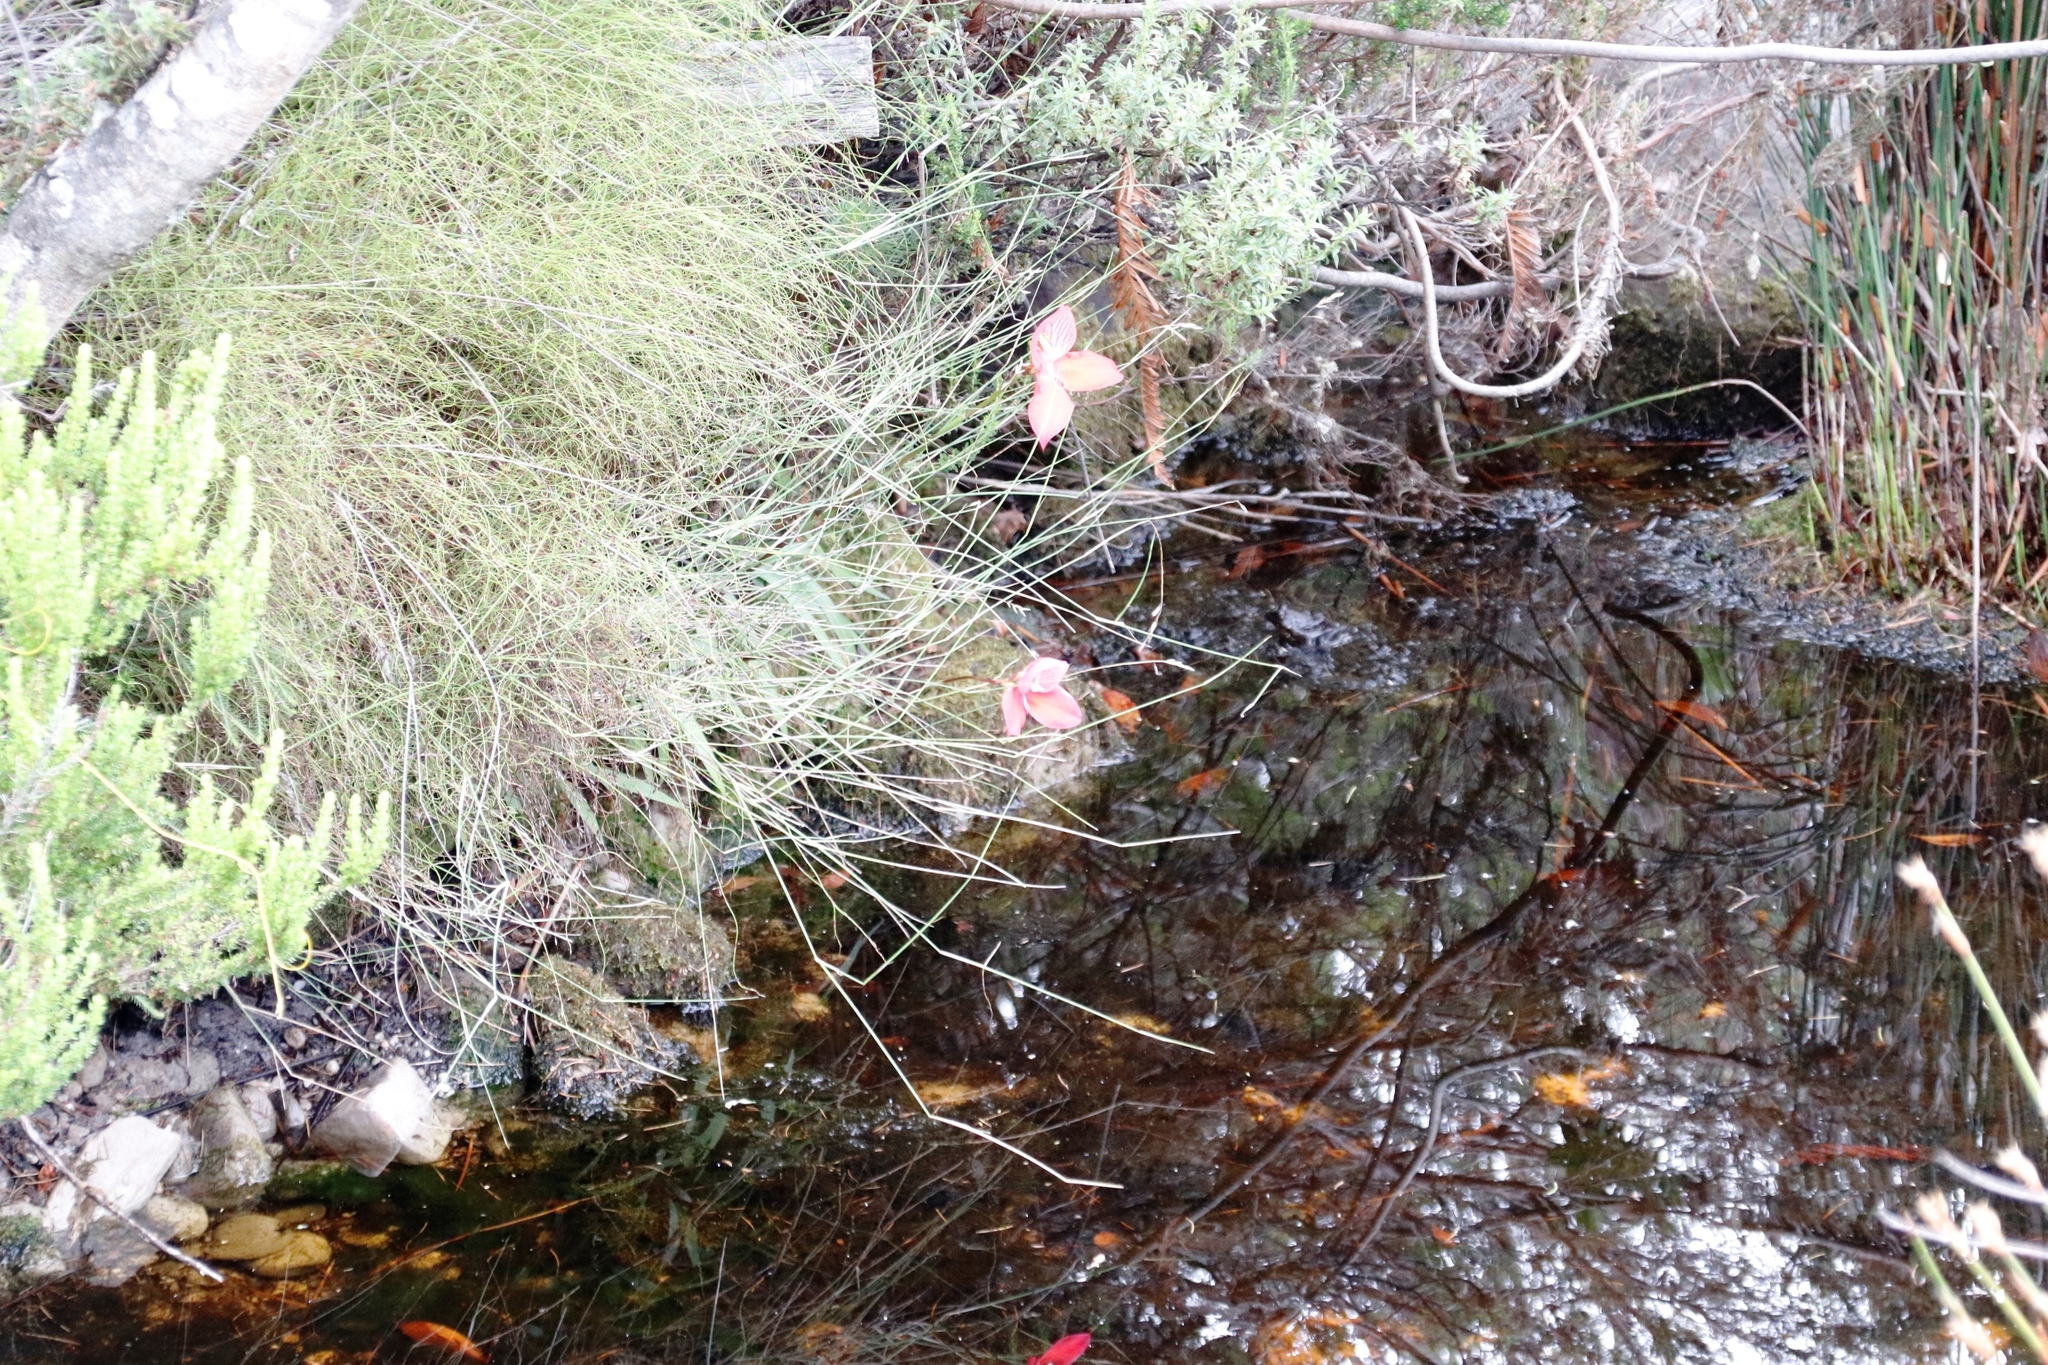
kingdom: Plantae
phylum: Tracheophyta
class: Liliopsida
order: Asparagales
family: Orchidaceae
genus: Disa
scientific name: Disa uniflora
